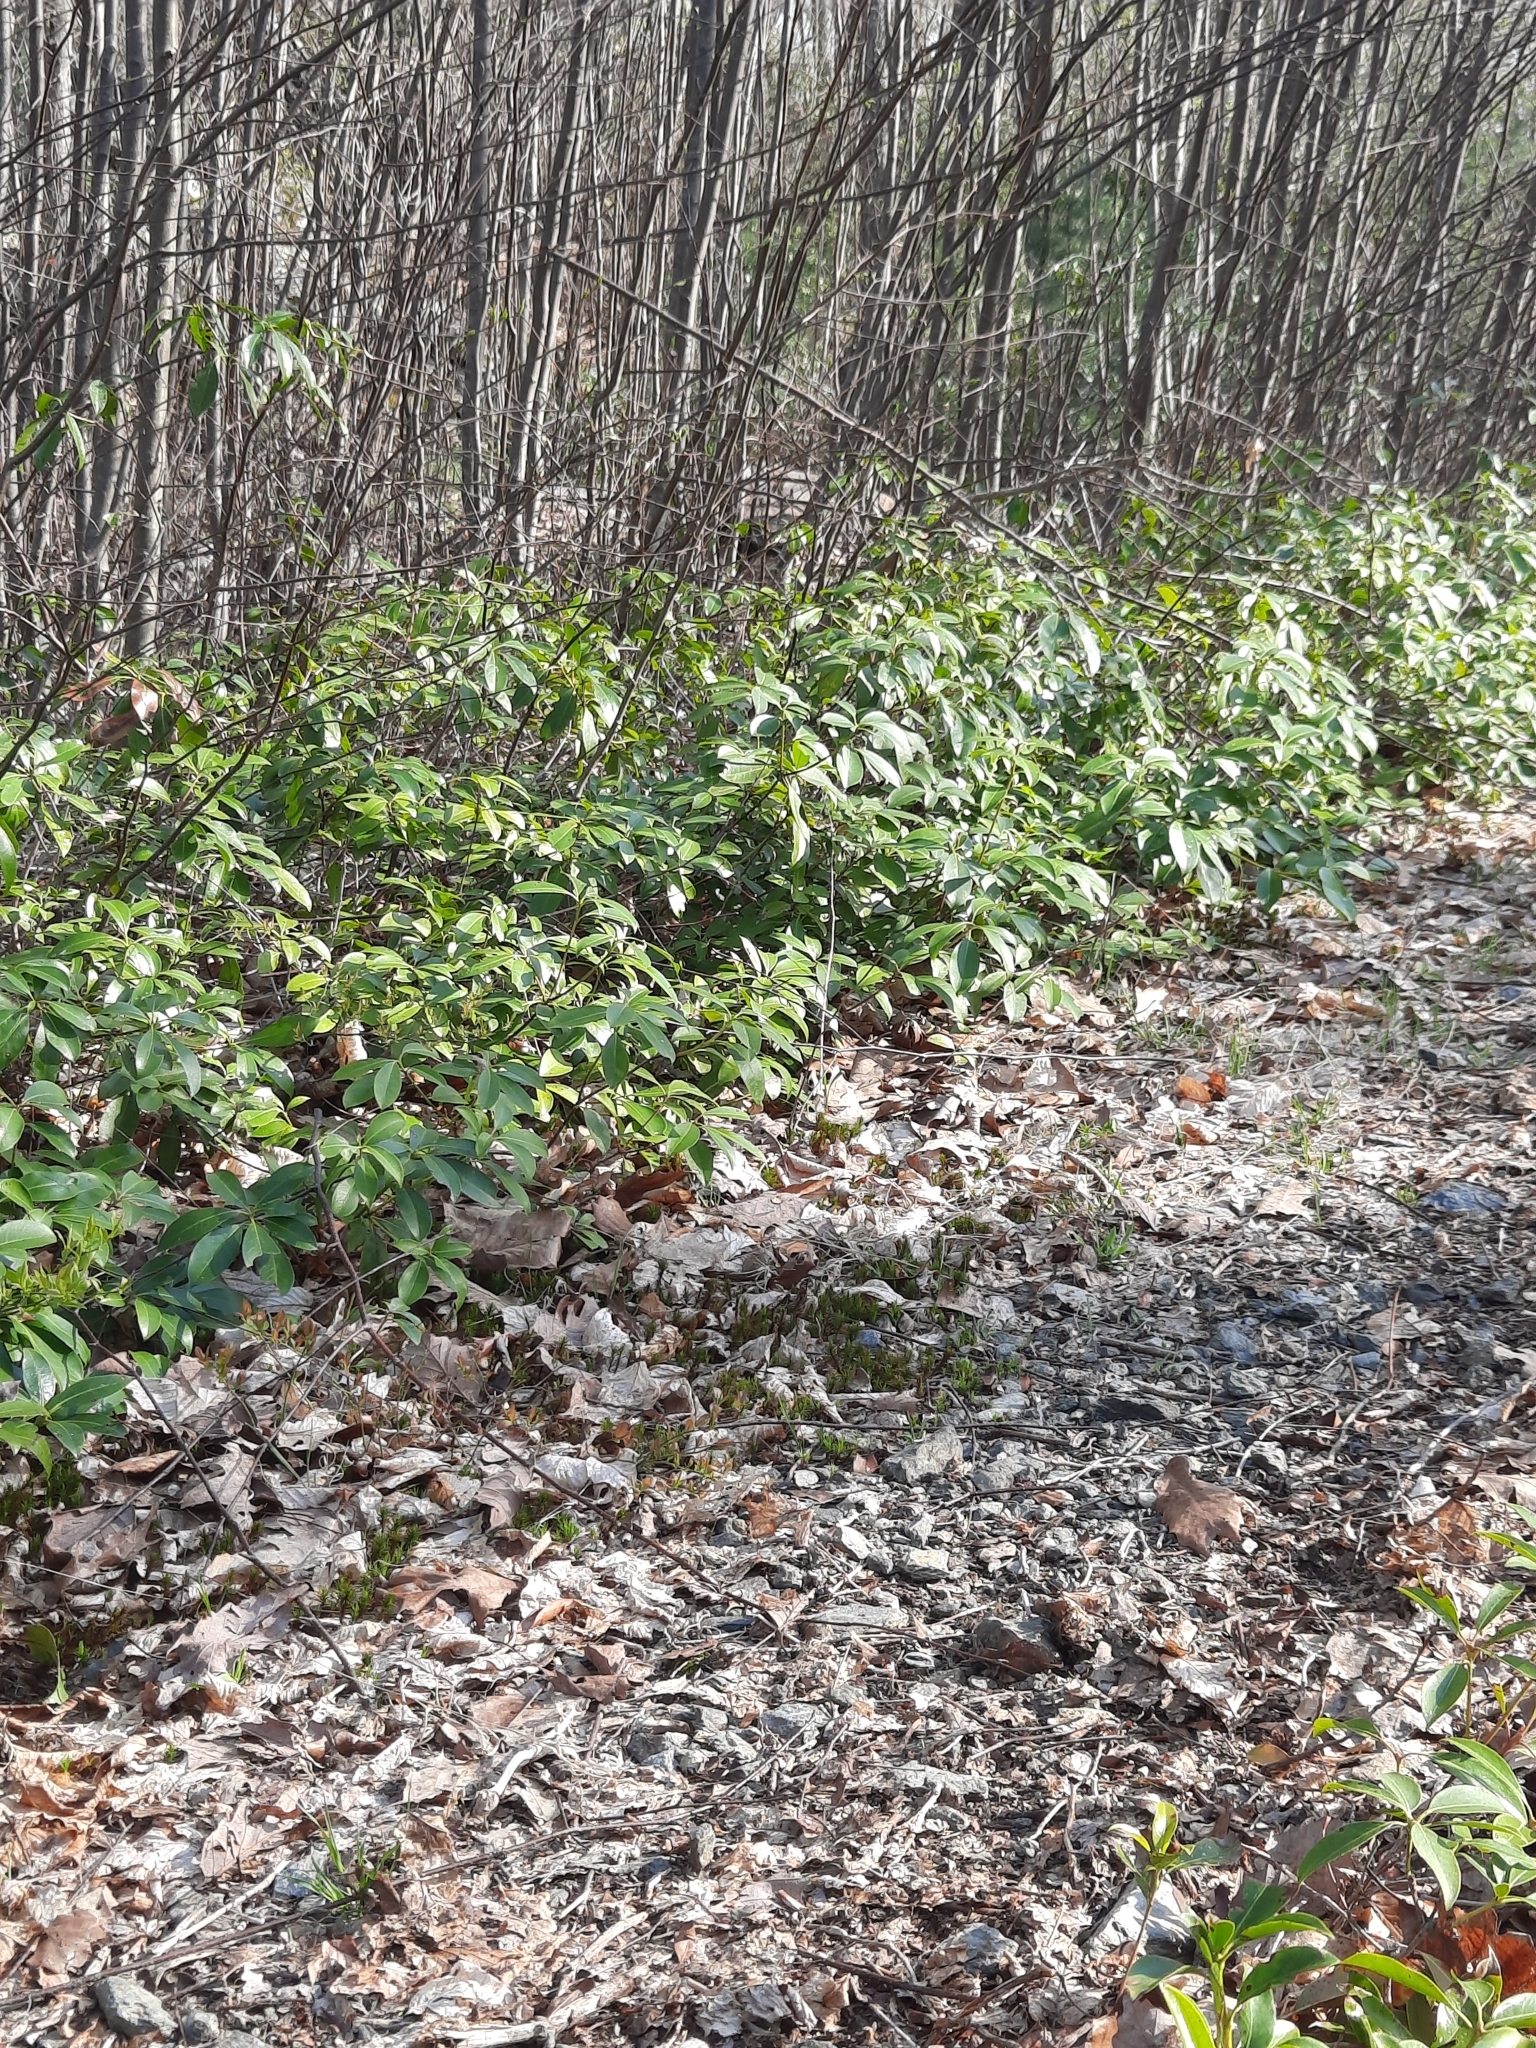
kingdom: Plantae
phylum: Tracheophyta
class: Magnoliopsida
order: Ericales
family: Ericaceae
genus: Kalmia
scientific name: Kalmia latifolia
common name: Mountain-laurel
